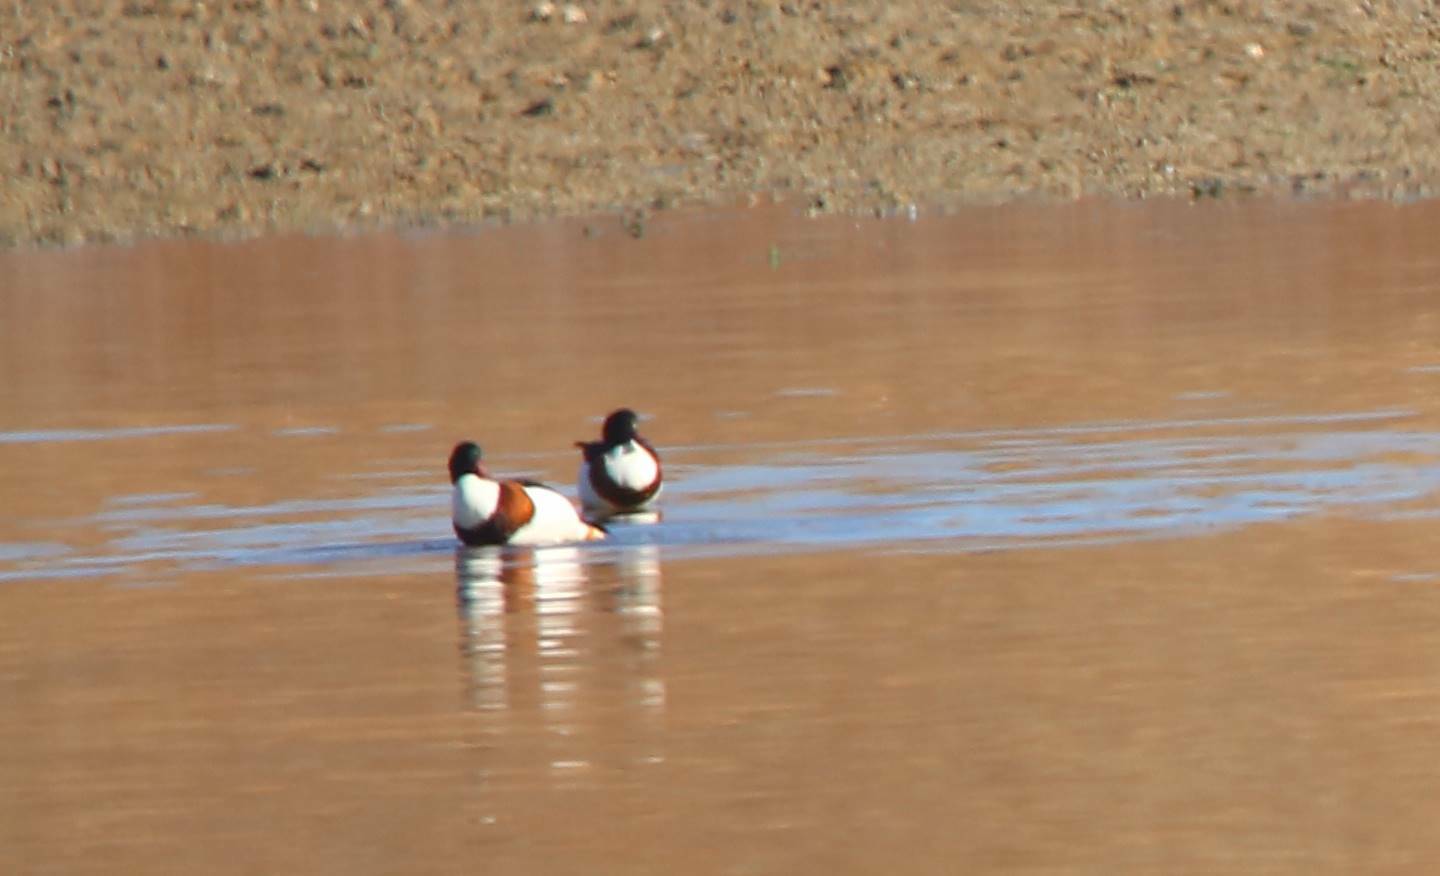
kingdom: Animalia
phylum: Chordata
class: Aves
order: Anseriformes
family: Anatidae
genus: Tadorna
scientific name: Tadorna tadorna
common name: Common shelduck
